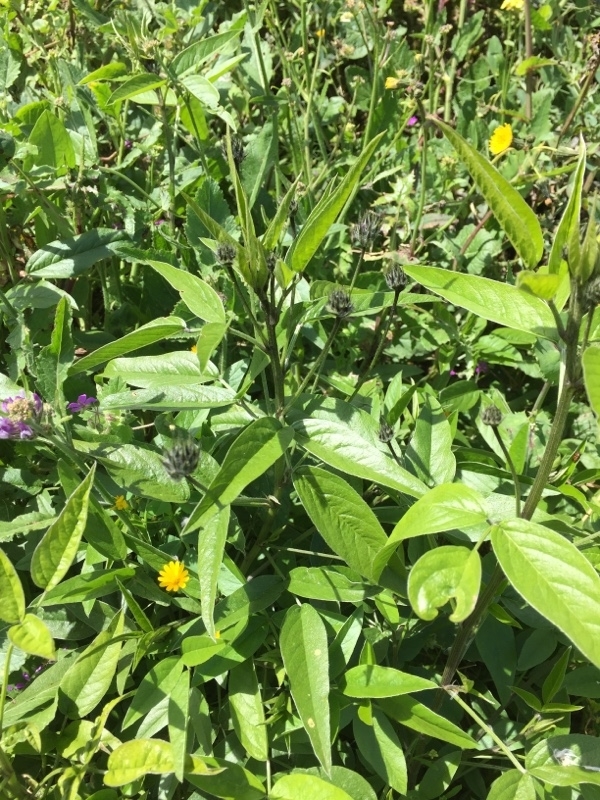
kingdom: Plantae
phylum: Tracheophyta
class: Magnoliopsida
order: Fabales
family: Fabaceae
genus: Bituminaria
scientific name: Bituminaria bituminosa
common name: Arabian pea
